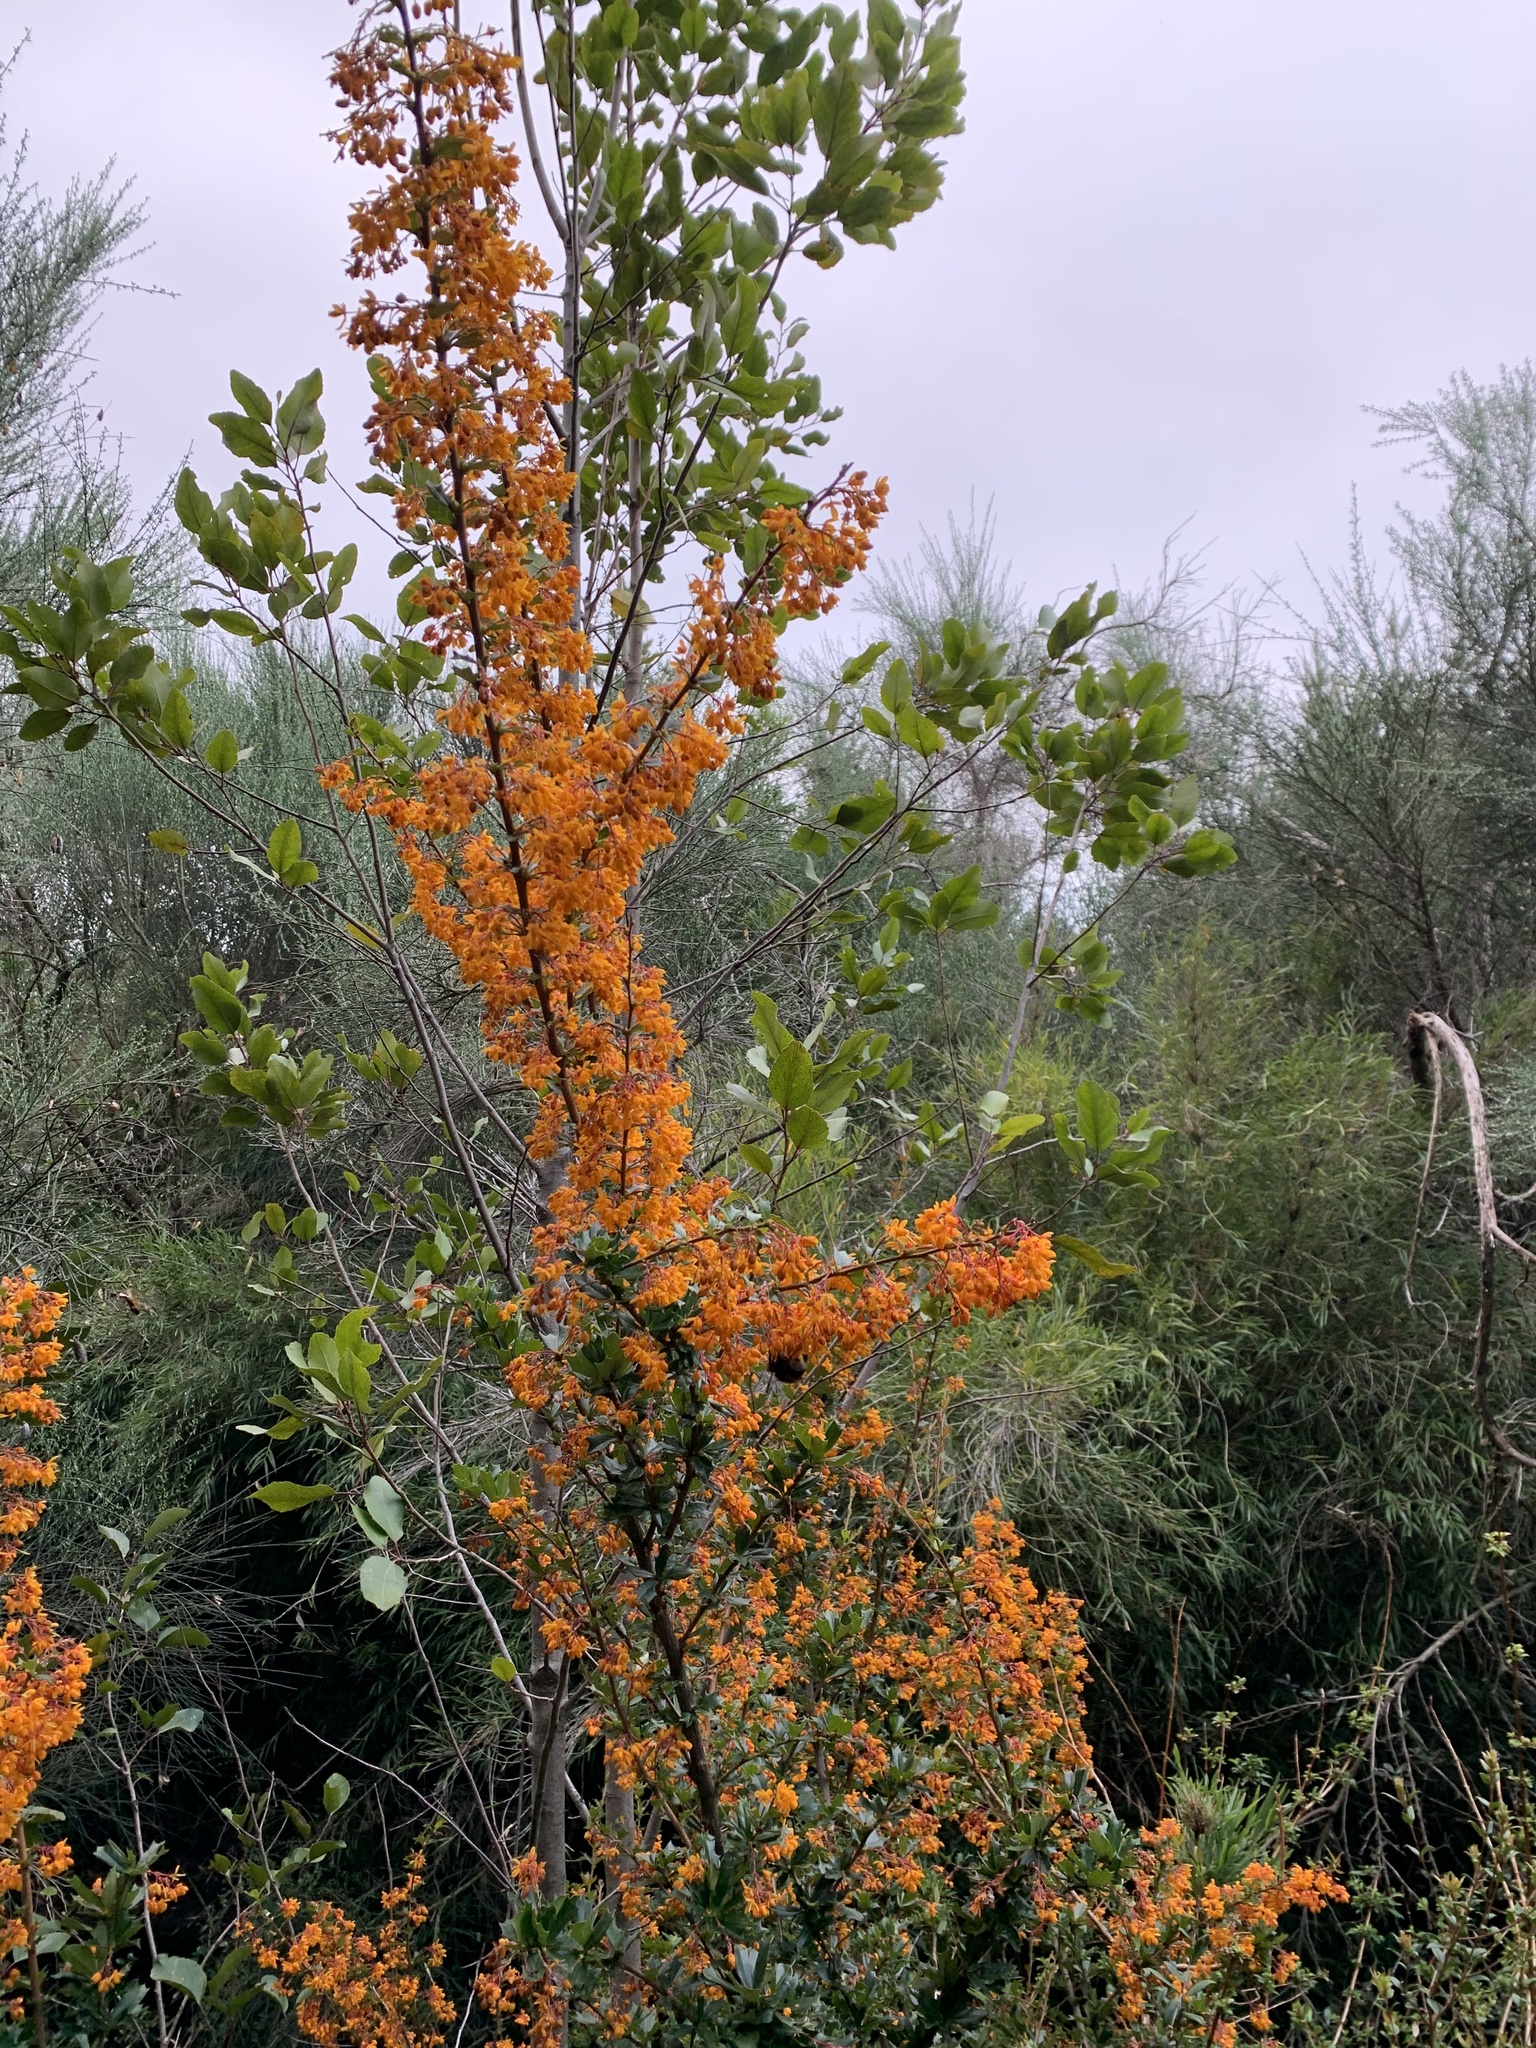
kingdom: Plantae
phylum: Tracheophyta
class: Magnoliopsida
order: Ranunculales
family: Berberidaceae
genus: Berberis
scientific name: Berberis darwinii
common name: Darwin's barberry
